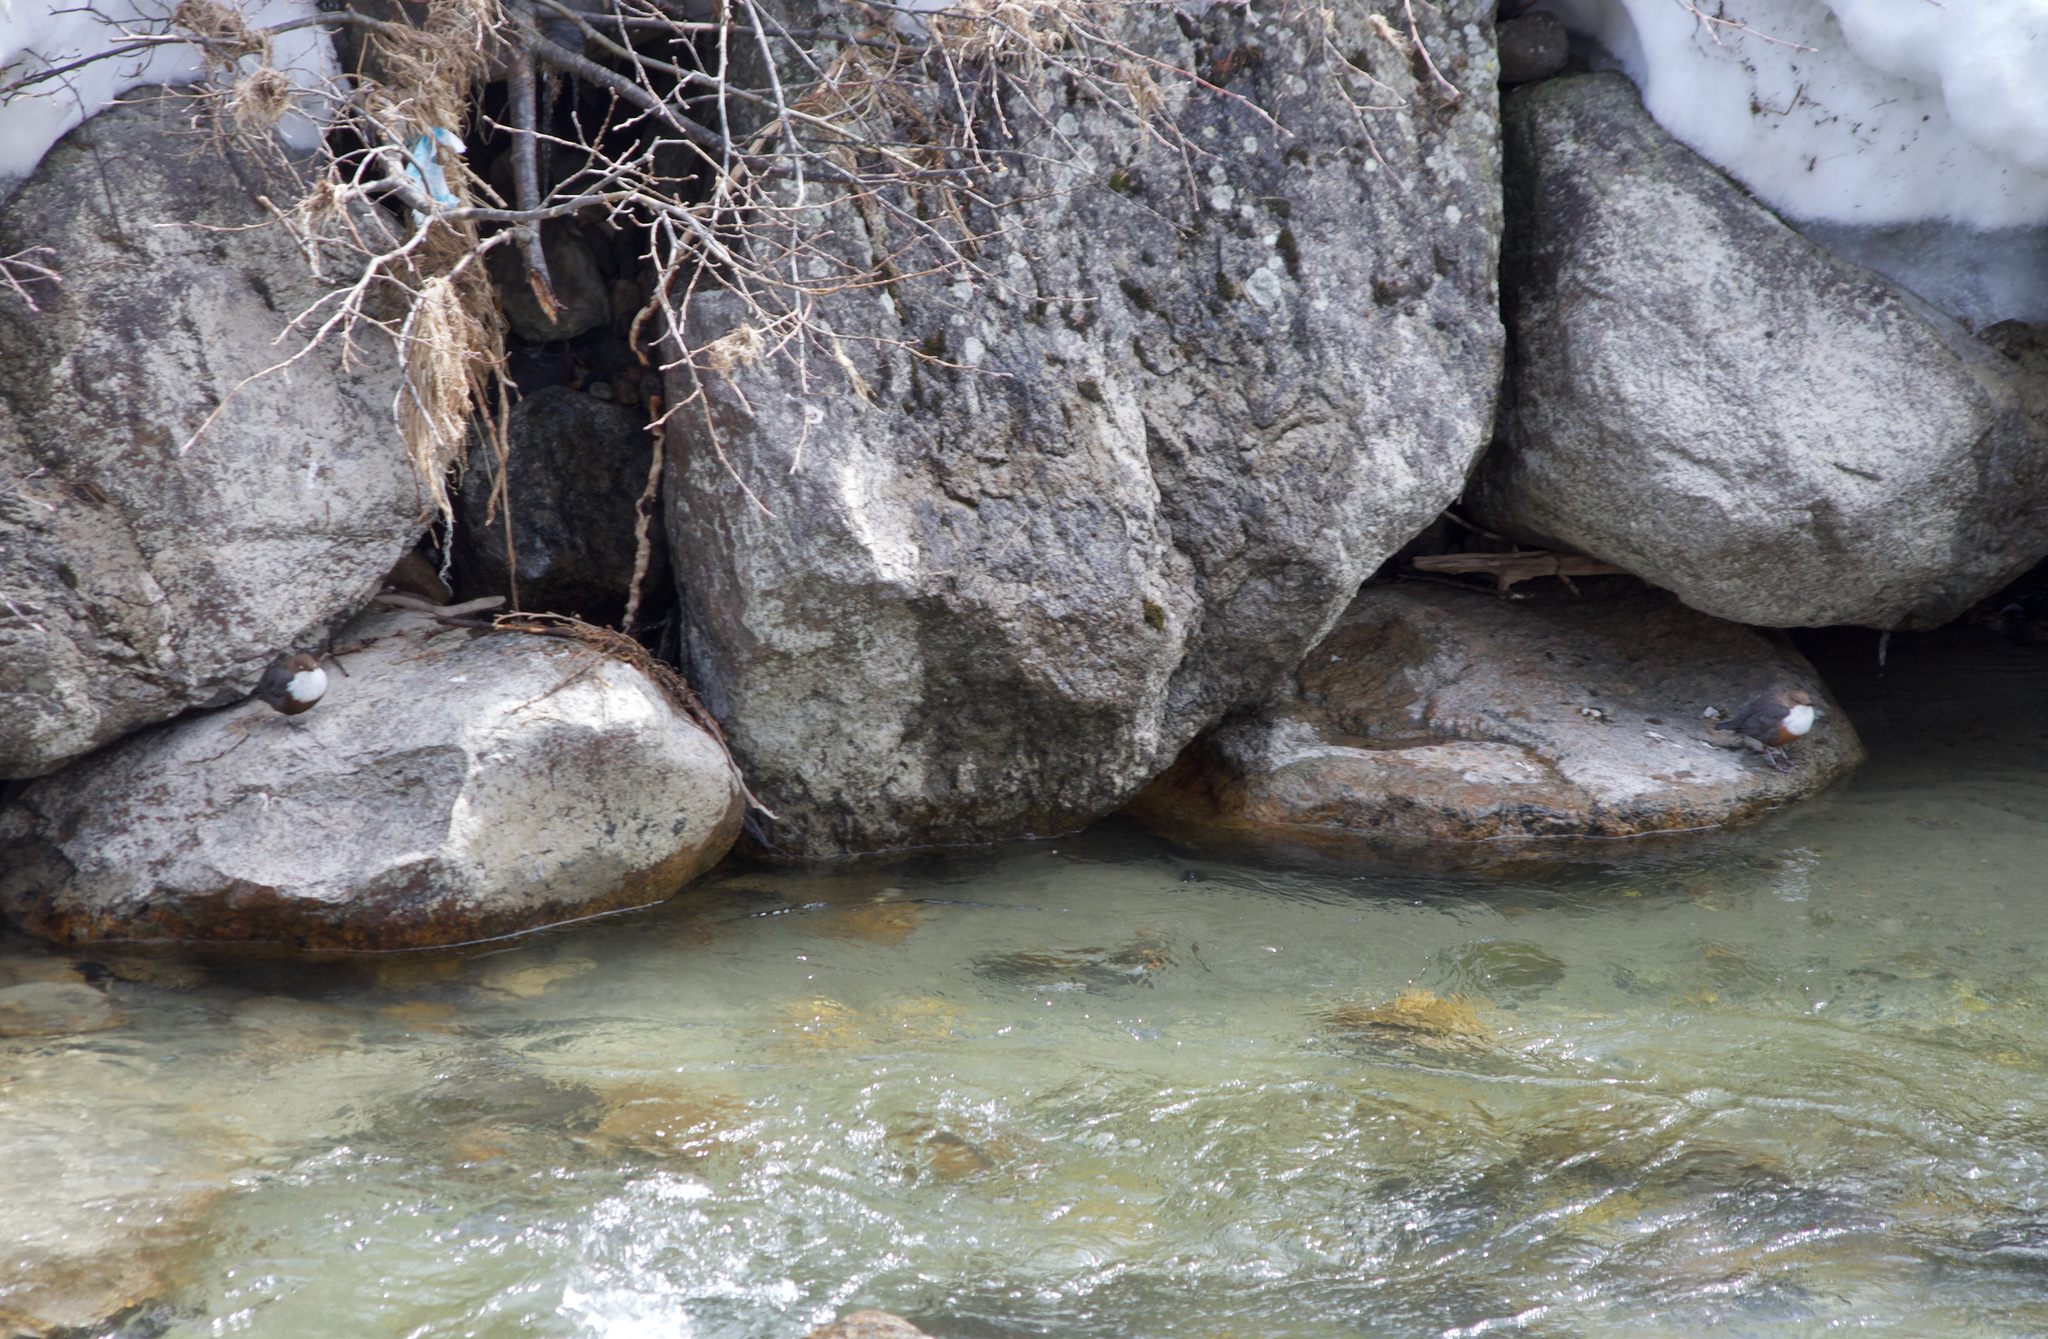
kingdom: Animalia
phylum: Chordata
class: Aves
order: Passeriformes
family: Cinclidae
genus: Cinclus
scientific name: Cinclus cinclus
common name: White-throated dipper
